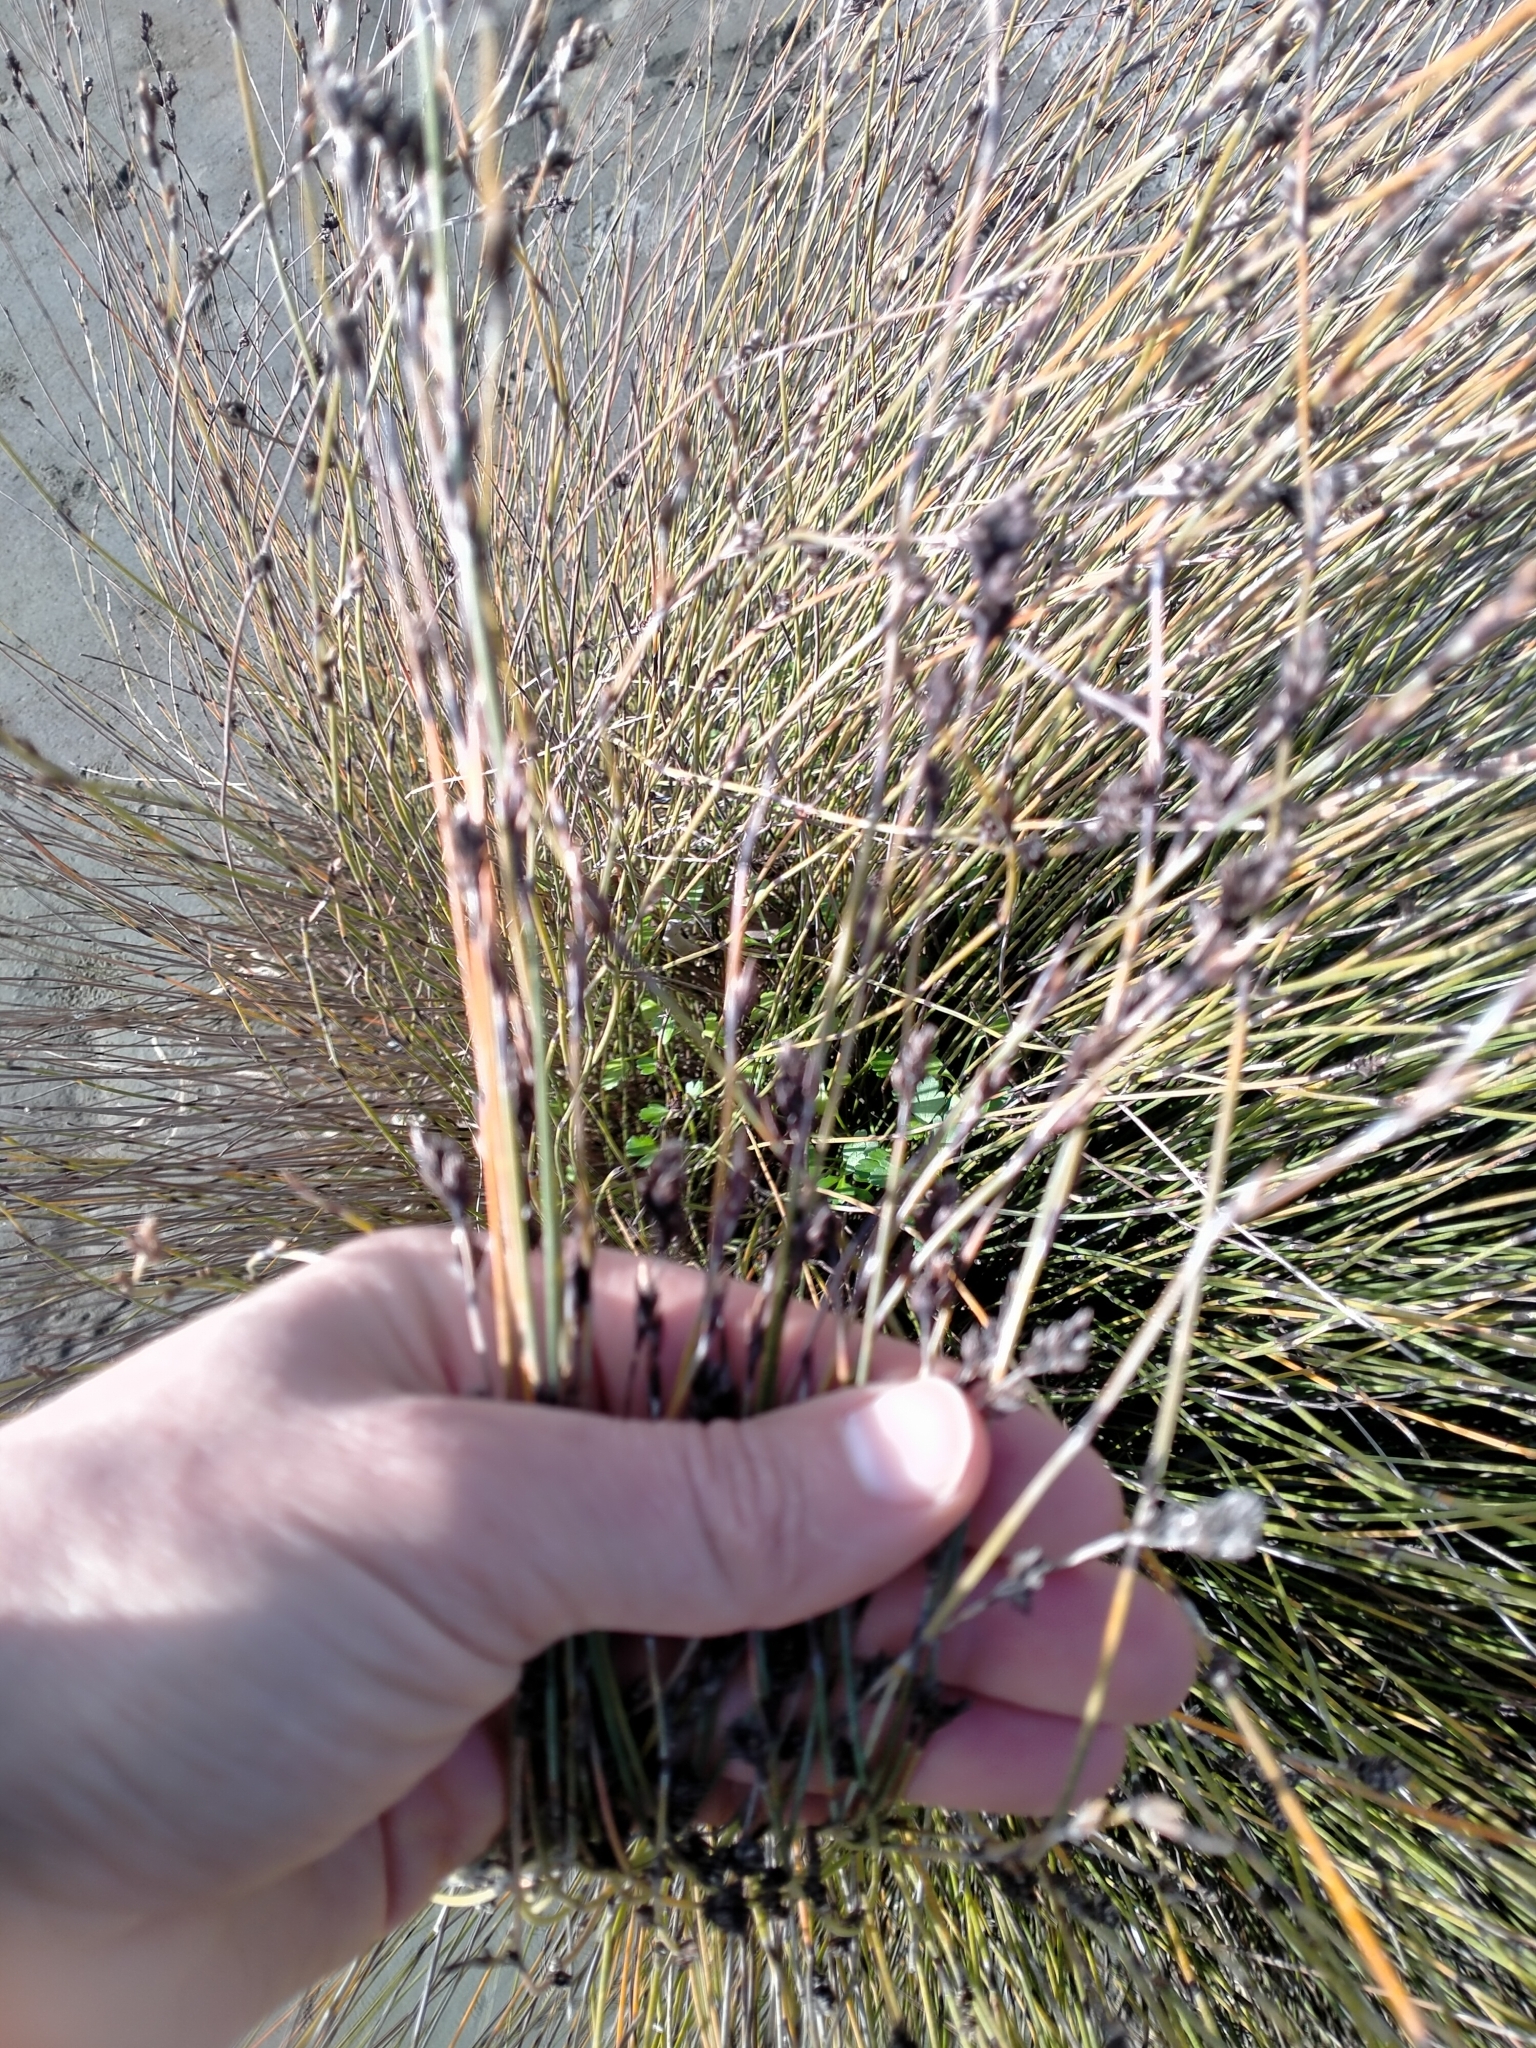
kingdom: Plantae
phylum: Tracheophyta
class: Liliopsida
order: Poales
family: Restionaceae
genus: Apodasmia
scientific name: Apodasmia similis
